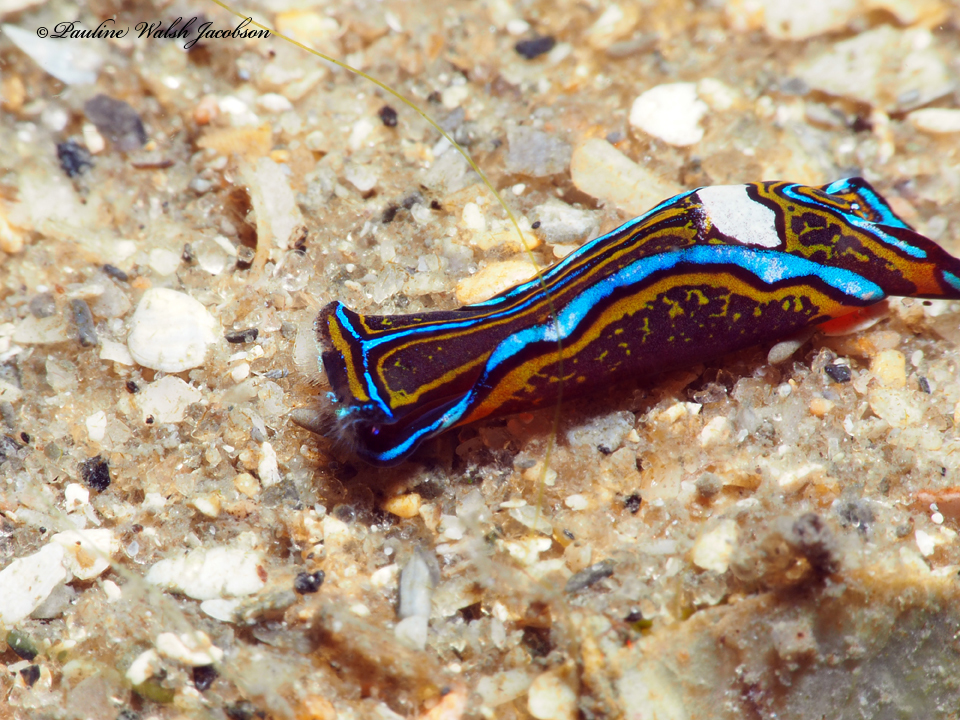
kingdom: Animalia
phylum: Mollusca
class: Gastropoda
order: Cephalaspidea
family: Aglajidae
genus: Chelidonura
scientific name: Chelidonura hirundinina
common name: Leech headshield slug
